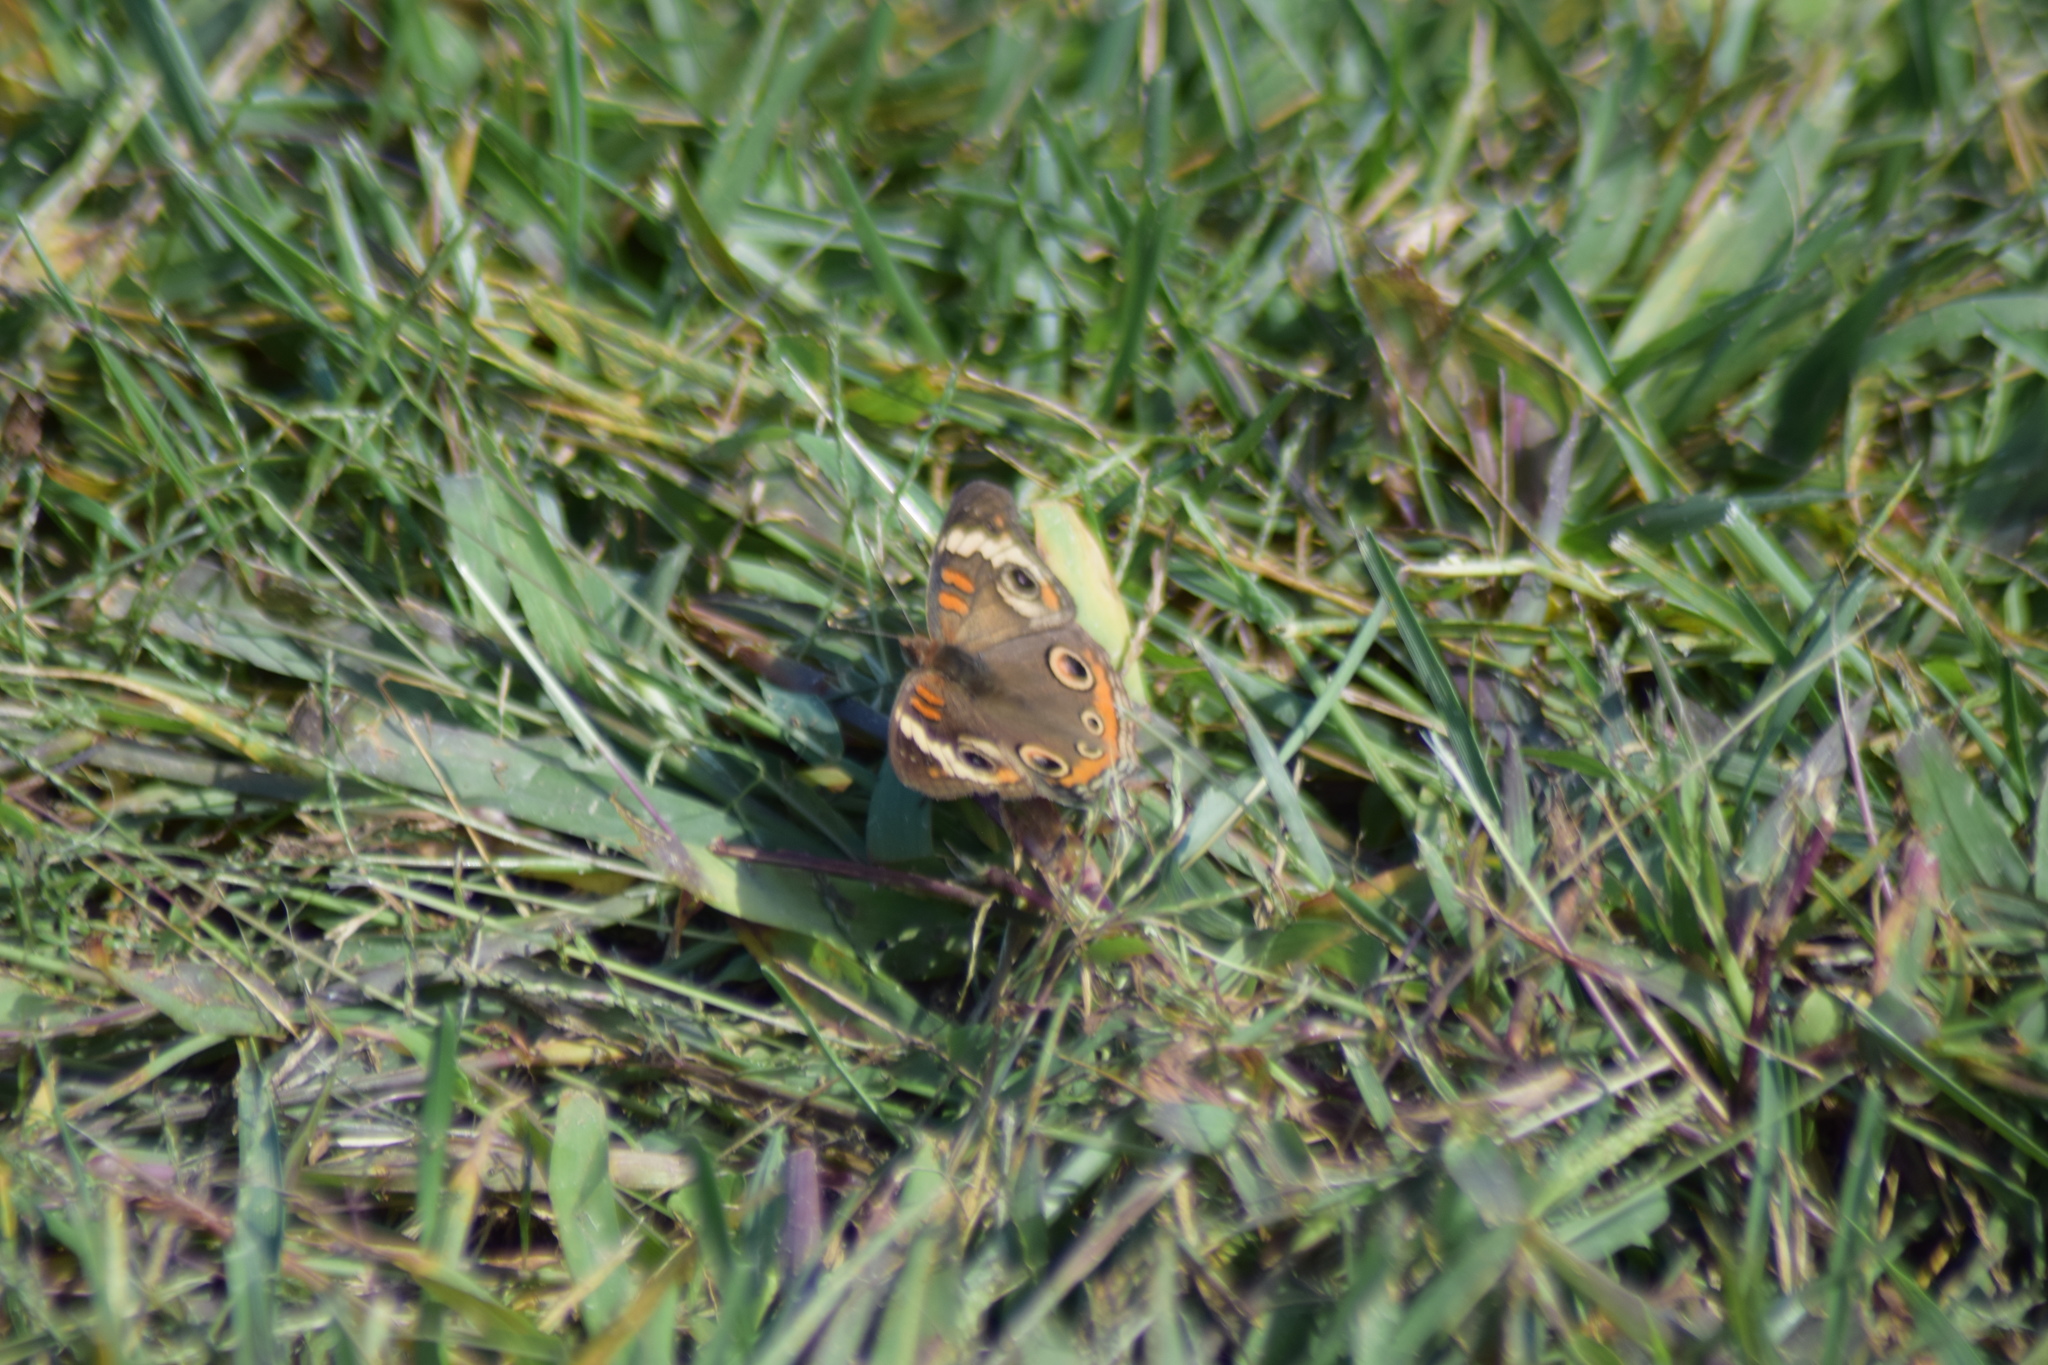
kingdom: Animalia
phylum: Arthropoda
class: Insecta
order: Lepidoptera
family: Nymphalidae
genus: Junonia
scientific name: Junonia coenia
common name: Common buckeye
